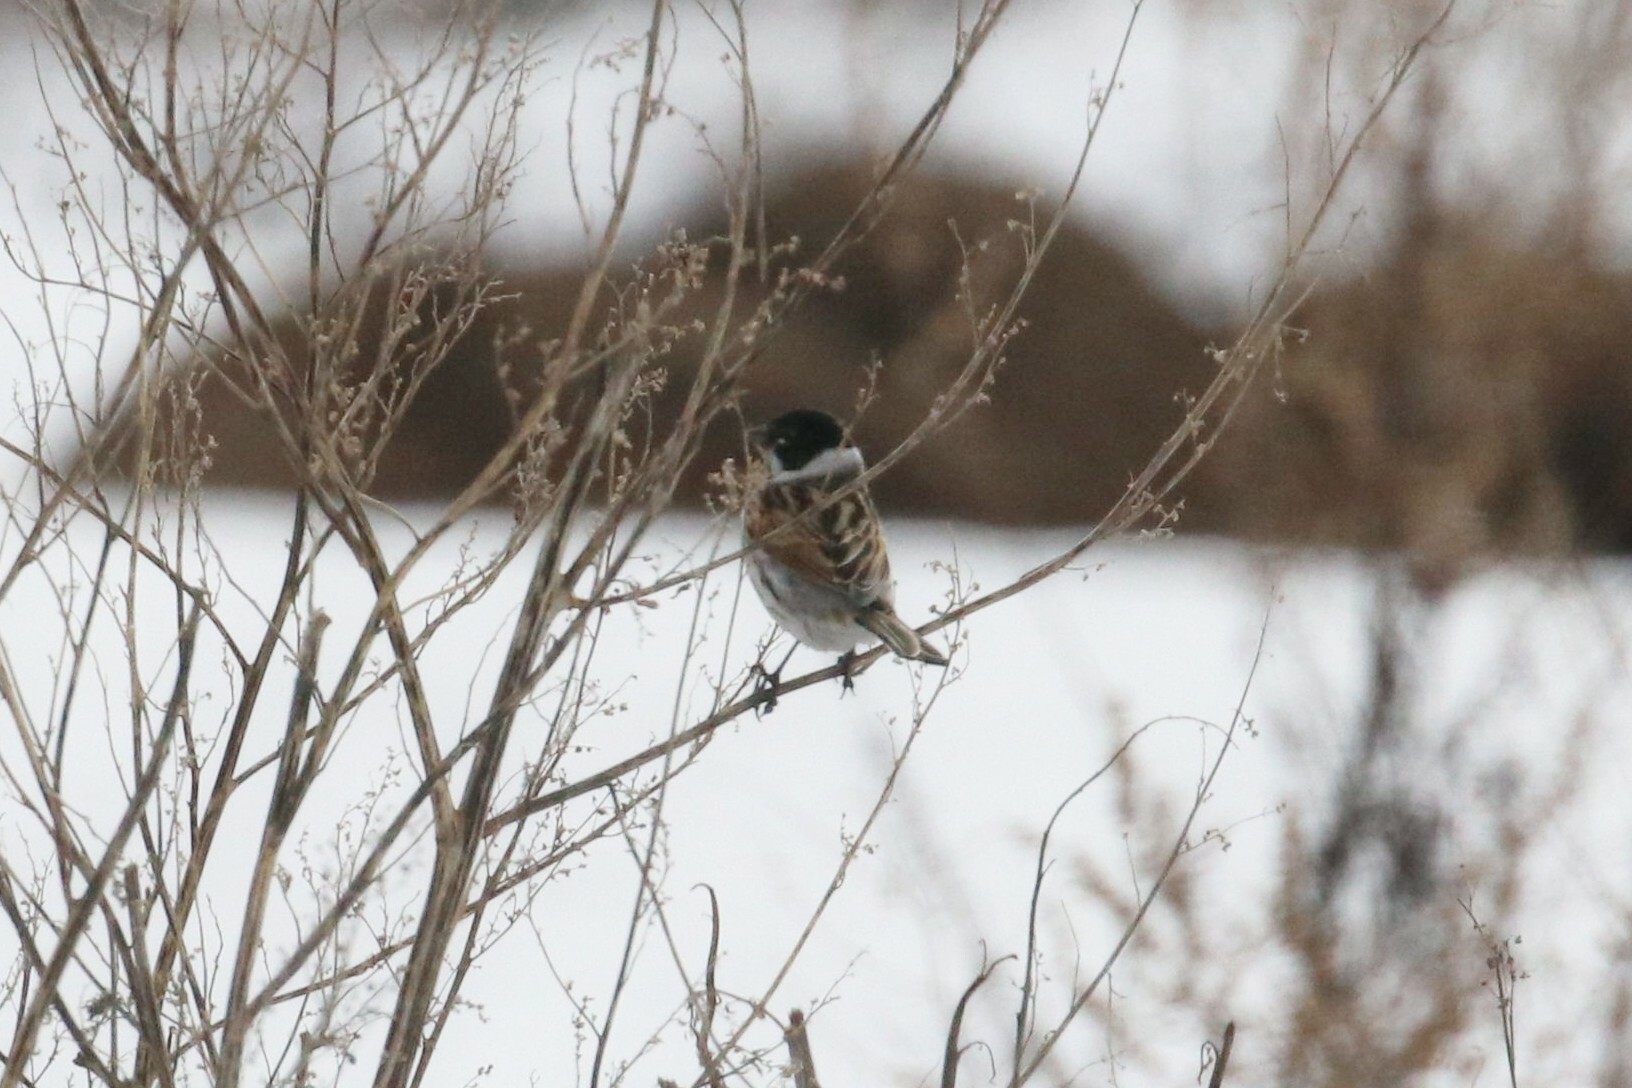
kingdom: Animalia
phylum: Chordata
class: Aves
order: Passeriformes
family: Emberizidae
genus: Emberiza
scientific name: Emberiza schoeniclus
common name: Reed bunting
